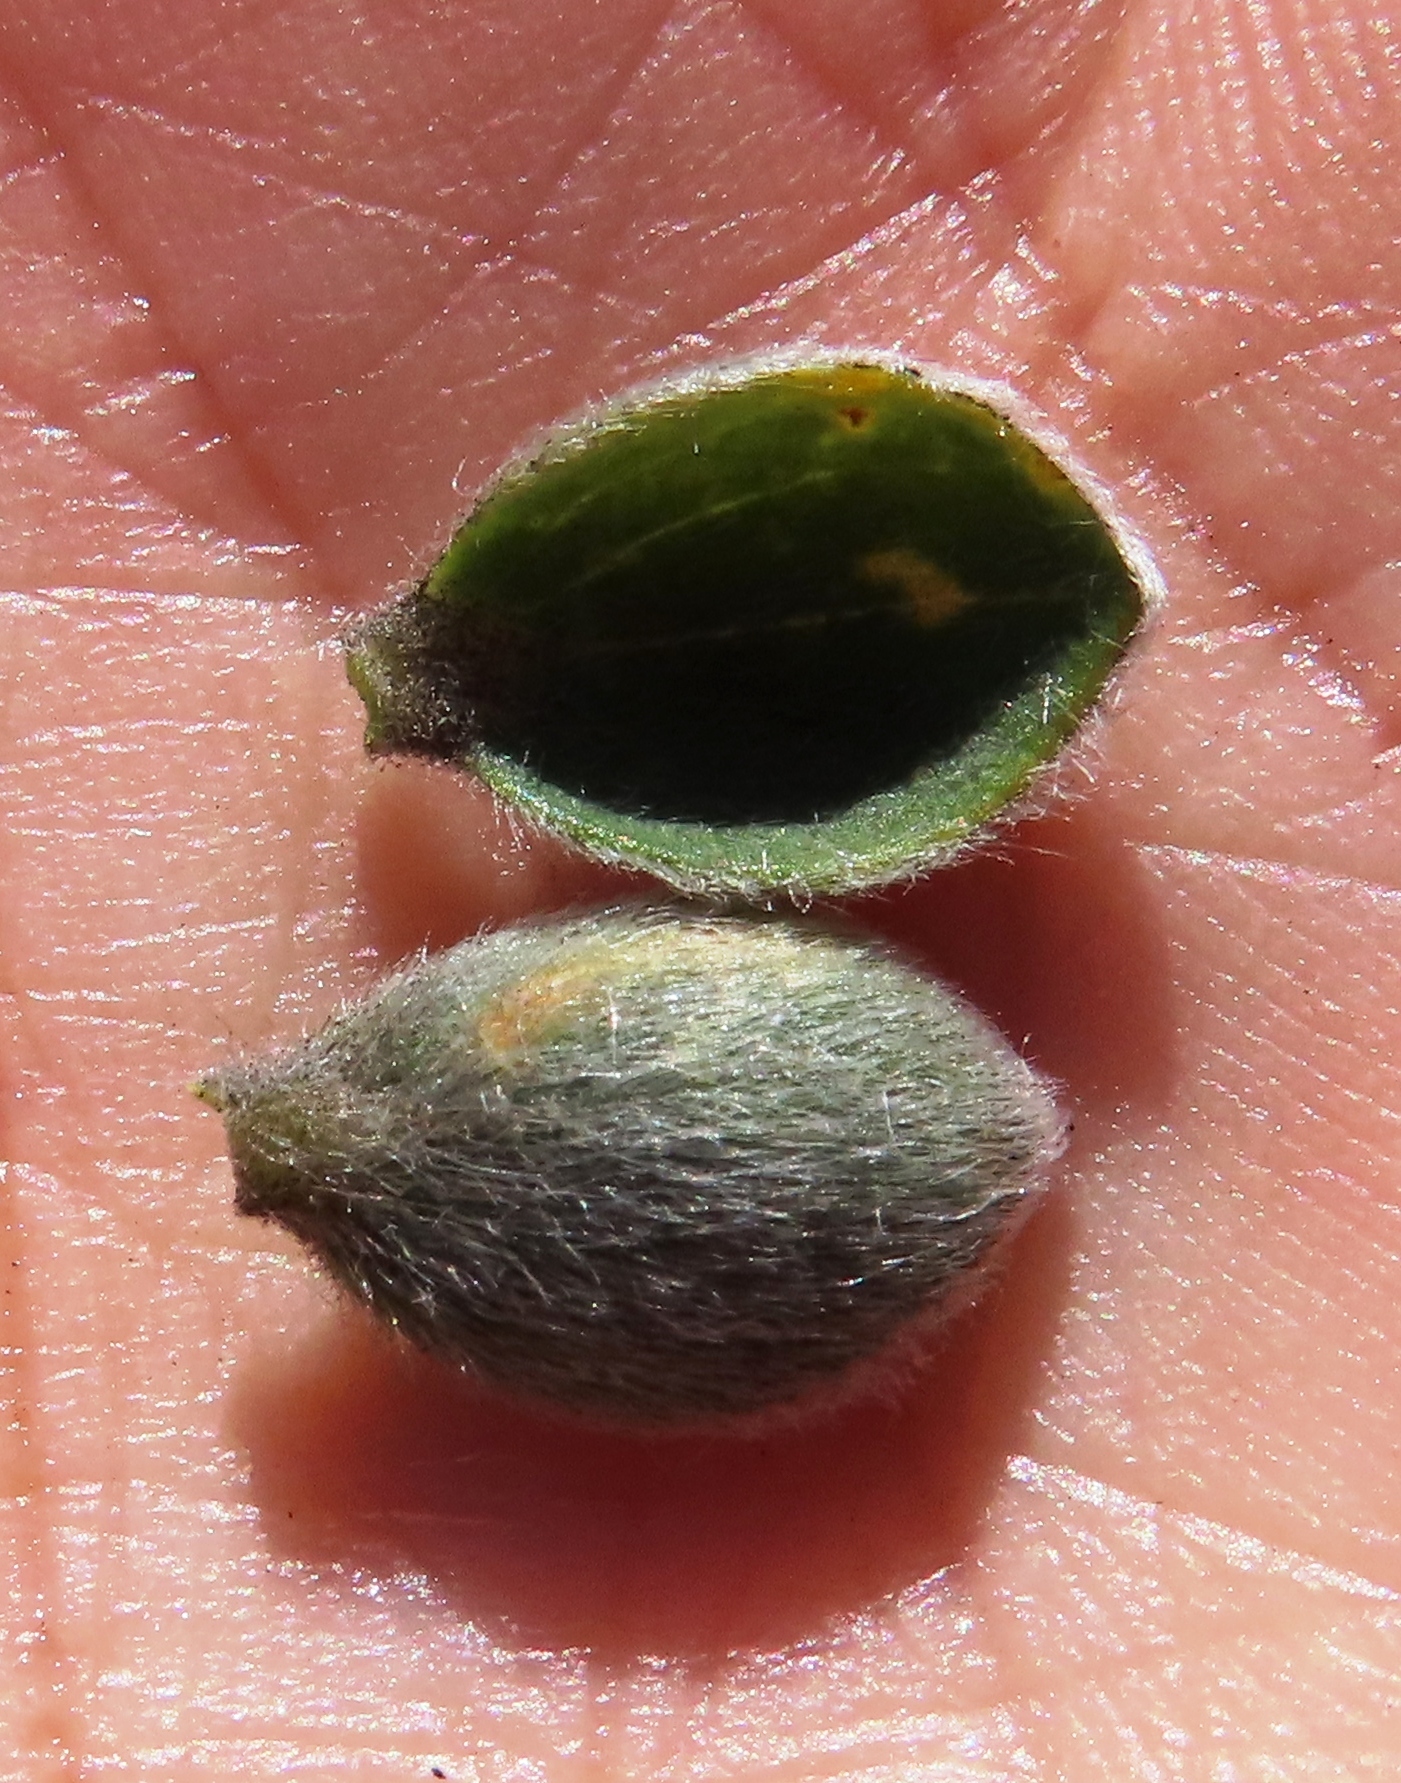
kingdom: Plantae
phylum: Tracheophyta
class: Magnoliopsida
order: Fabales
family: Fabaceae
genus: Liparia
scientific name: Liparia vestita
